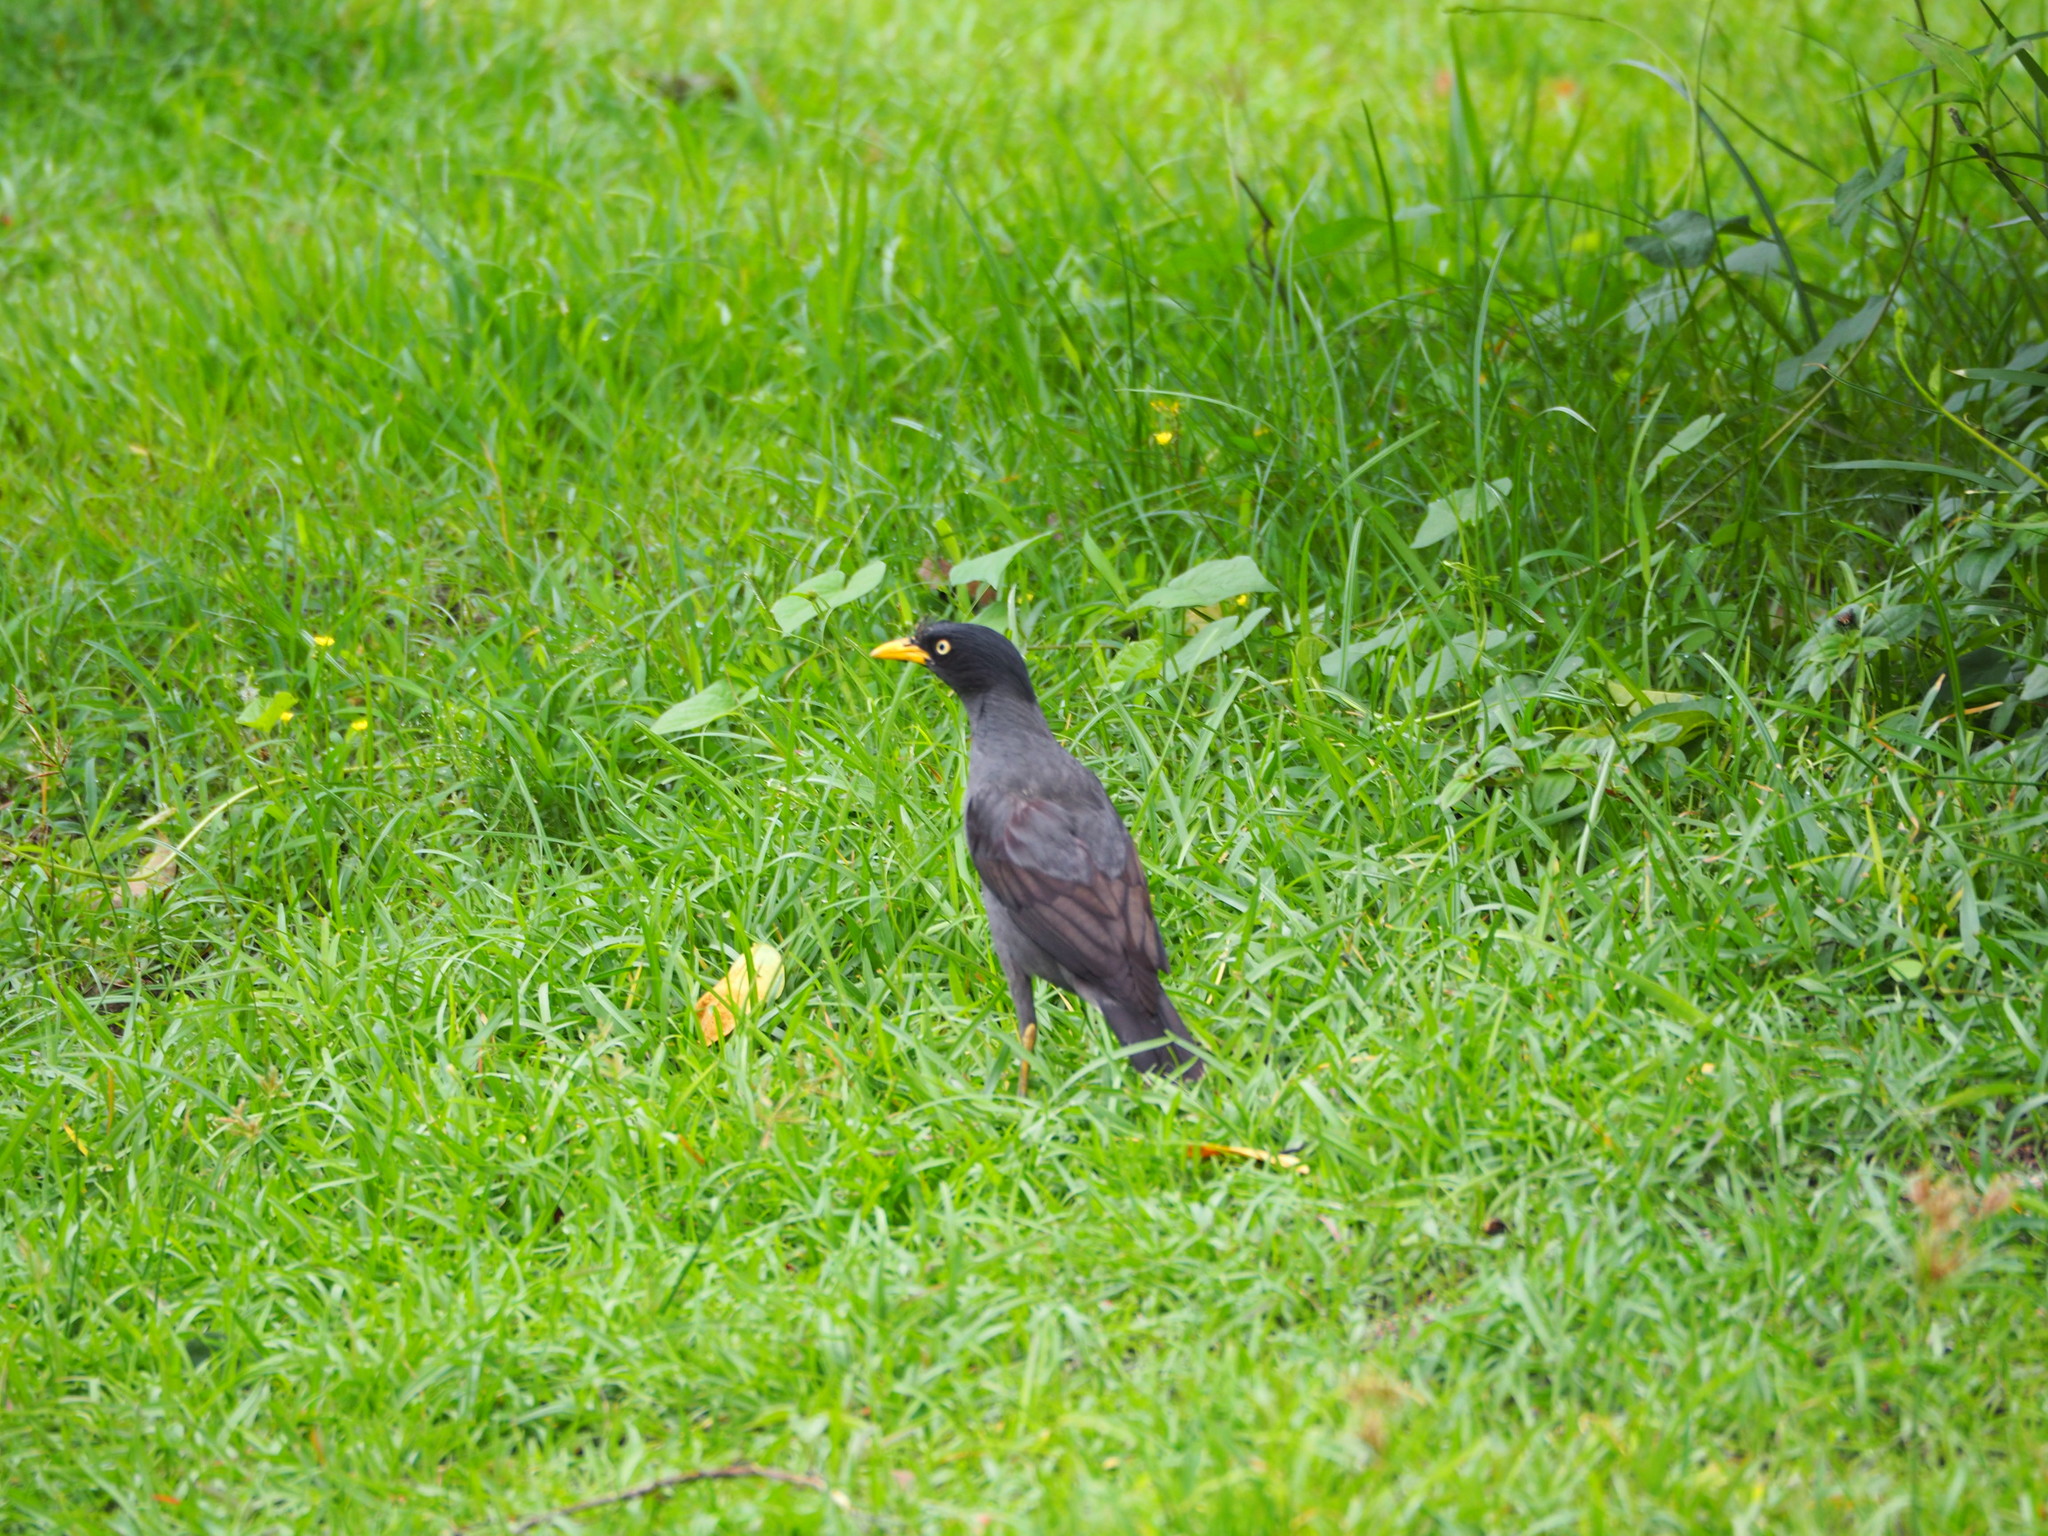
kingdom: Animalia
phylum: Chordata
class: Aves
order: Passeriformes
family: Sturnidae
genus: Acridotheres
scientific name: Acridotheres javanicus
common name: Javan myna
